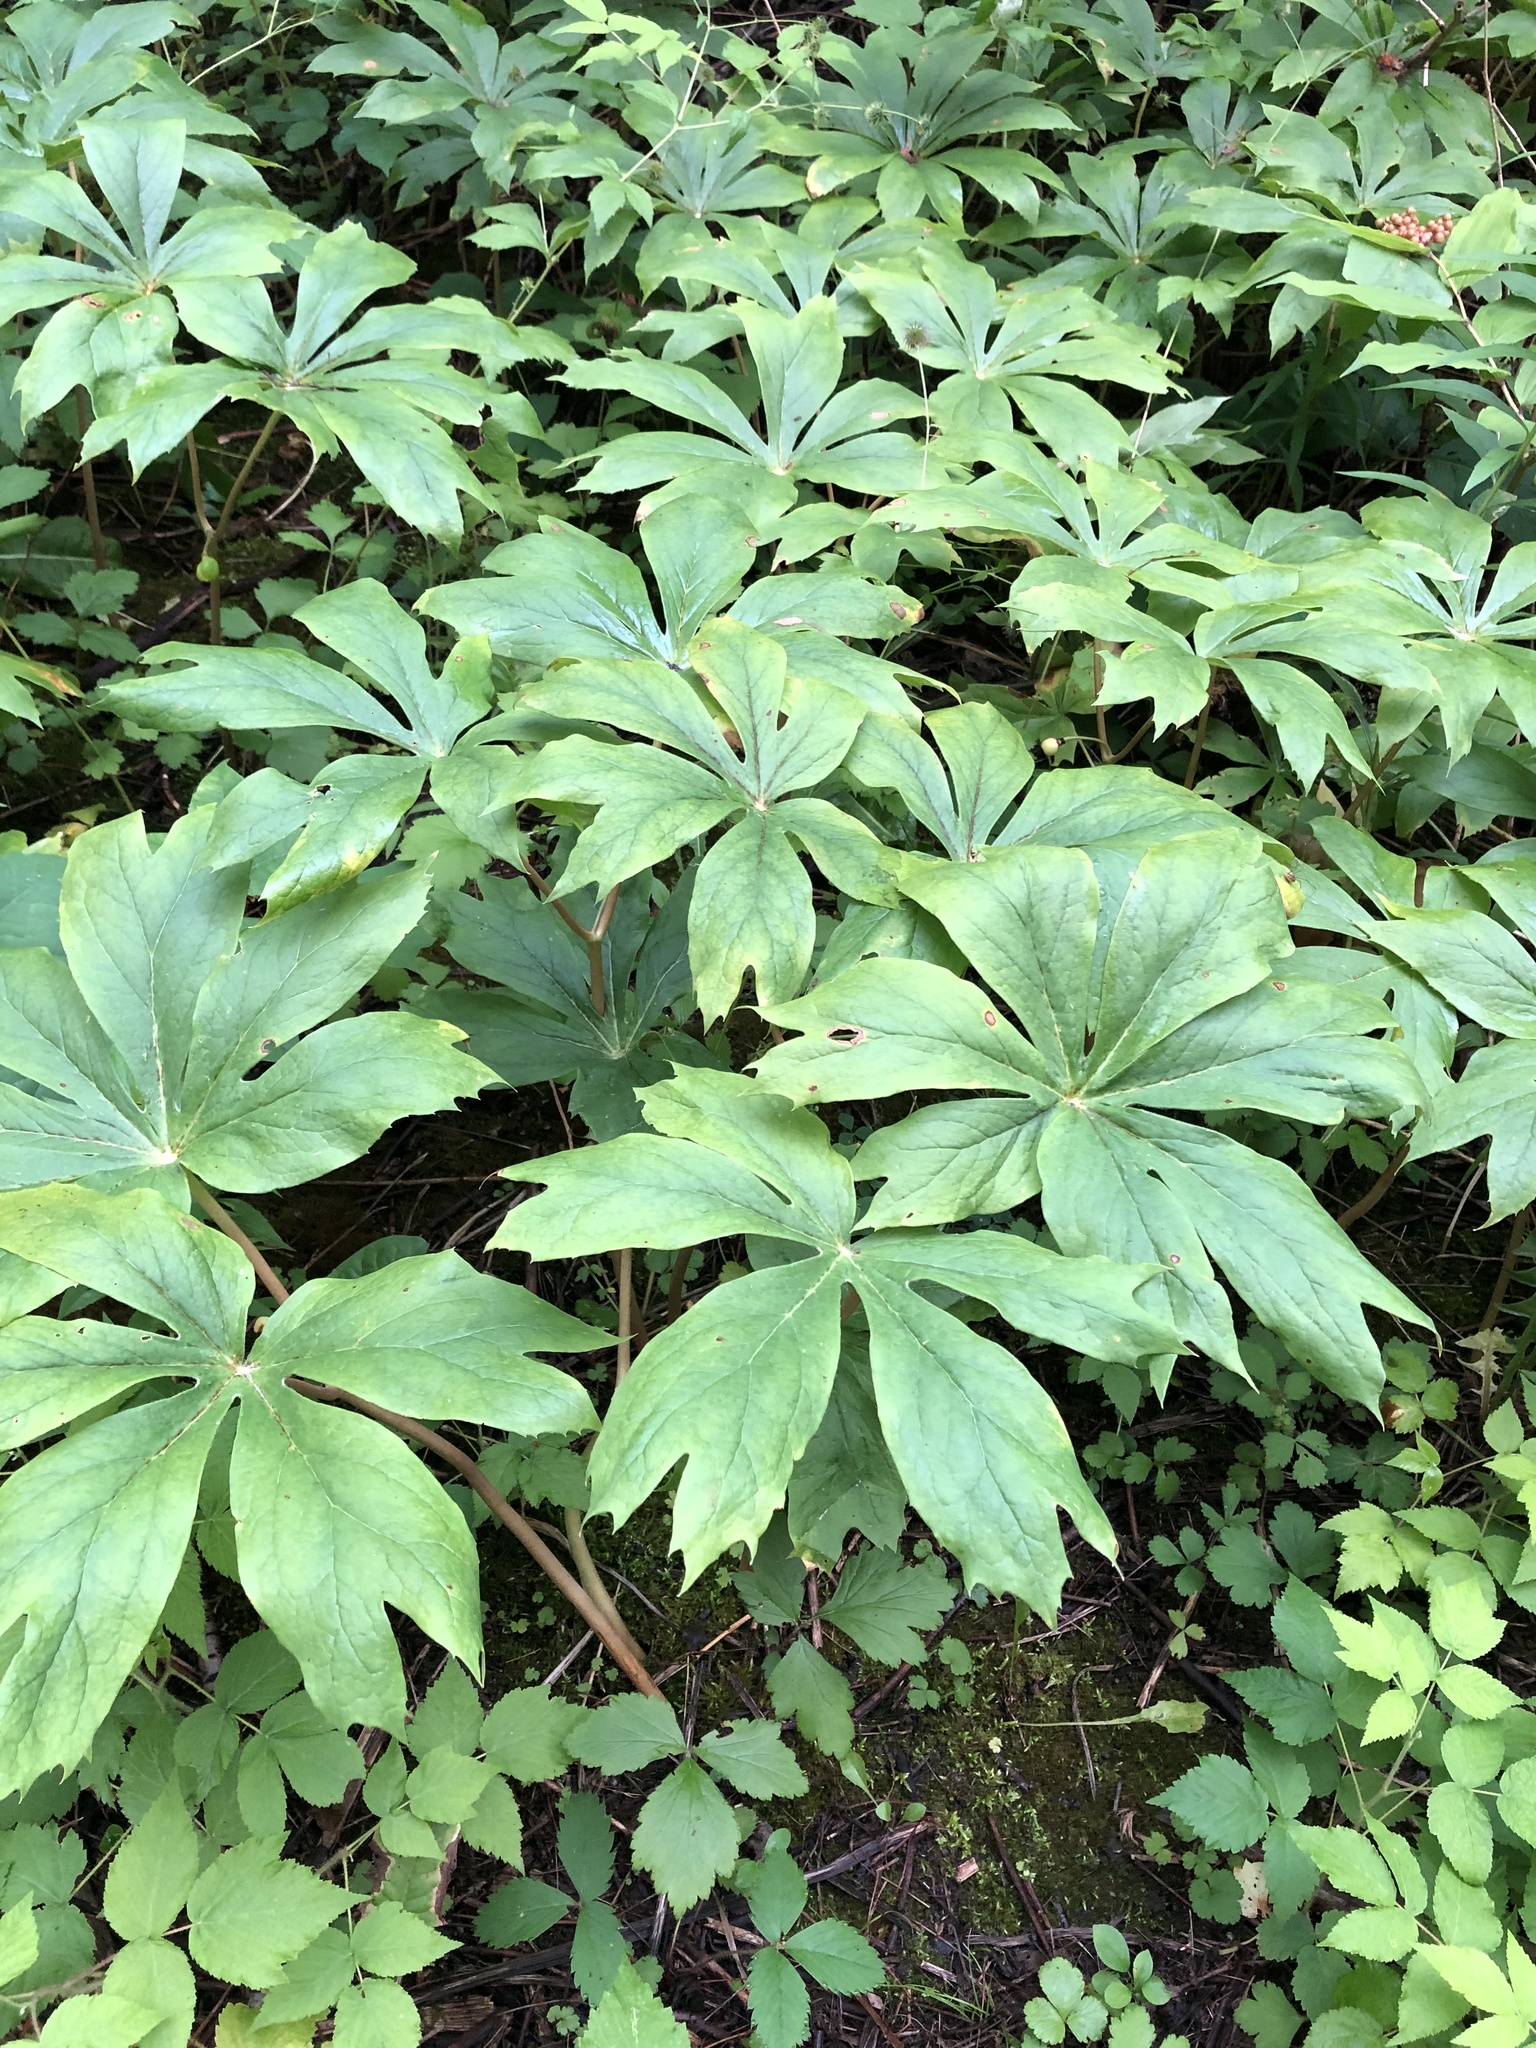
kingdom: Plantae
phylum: Tracheophyta
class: Magnoliopsida
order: Ranunculales
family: Berberidaceae
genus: Podophyllum
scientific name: Podophyllum peltatum
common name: Wild mandrake
